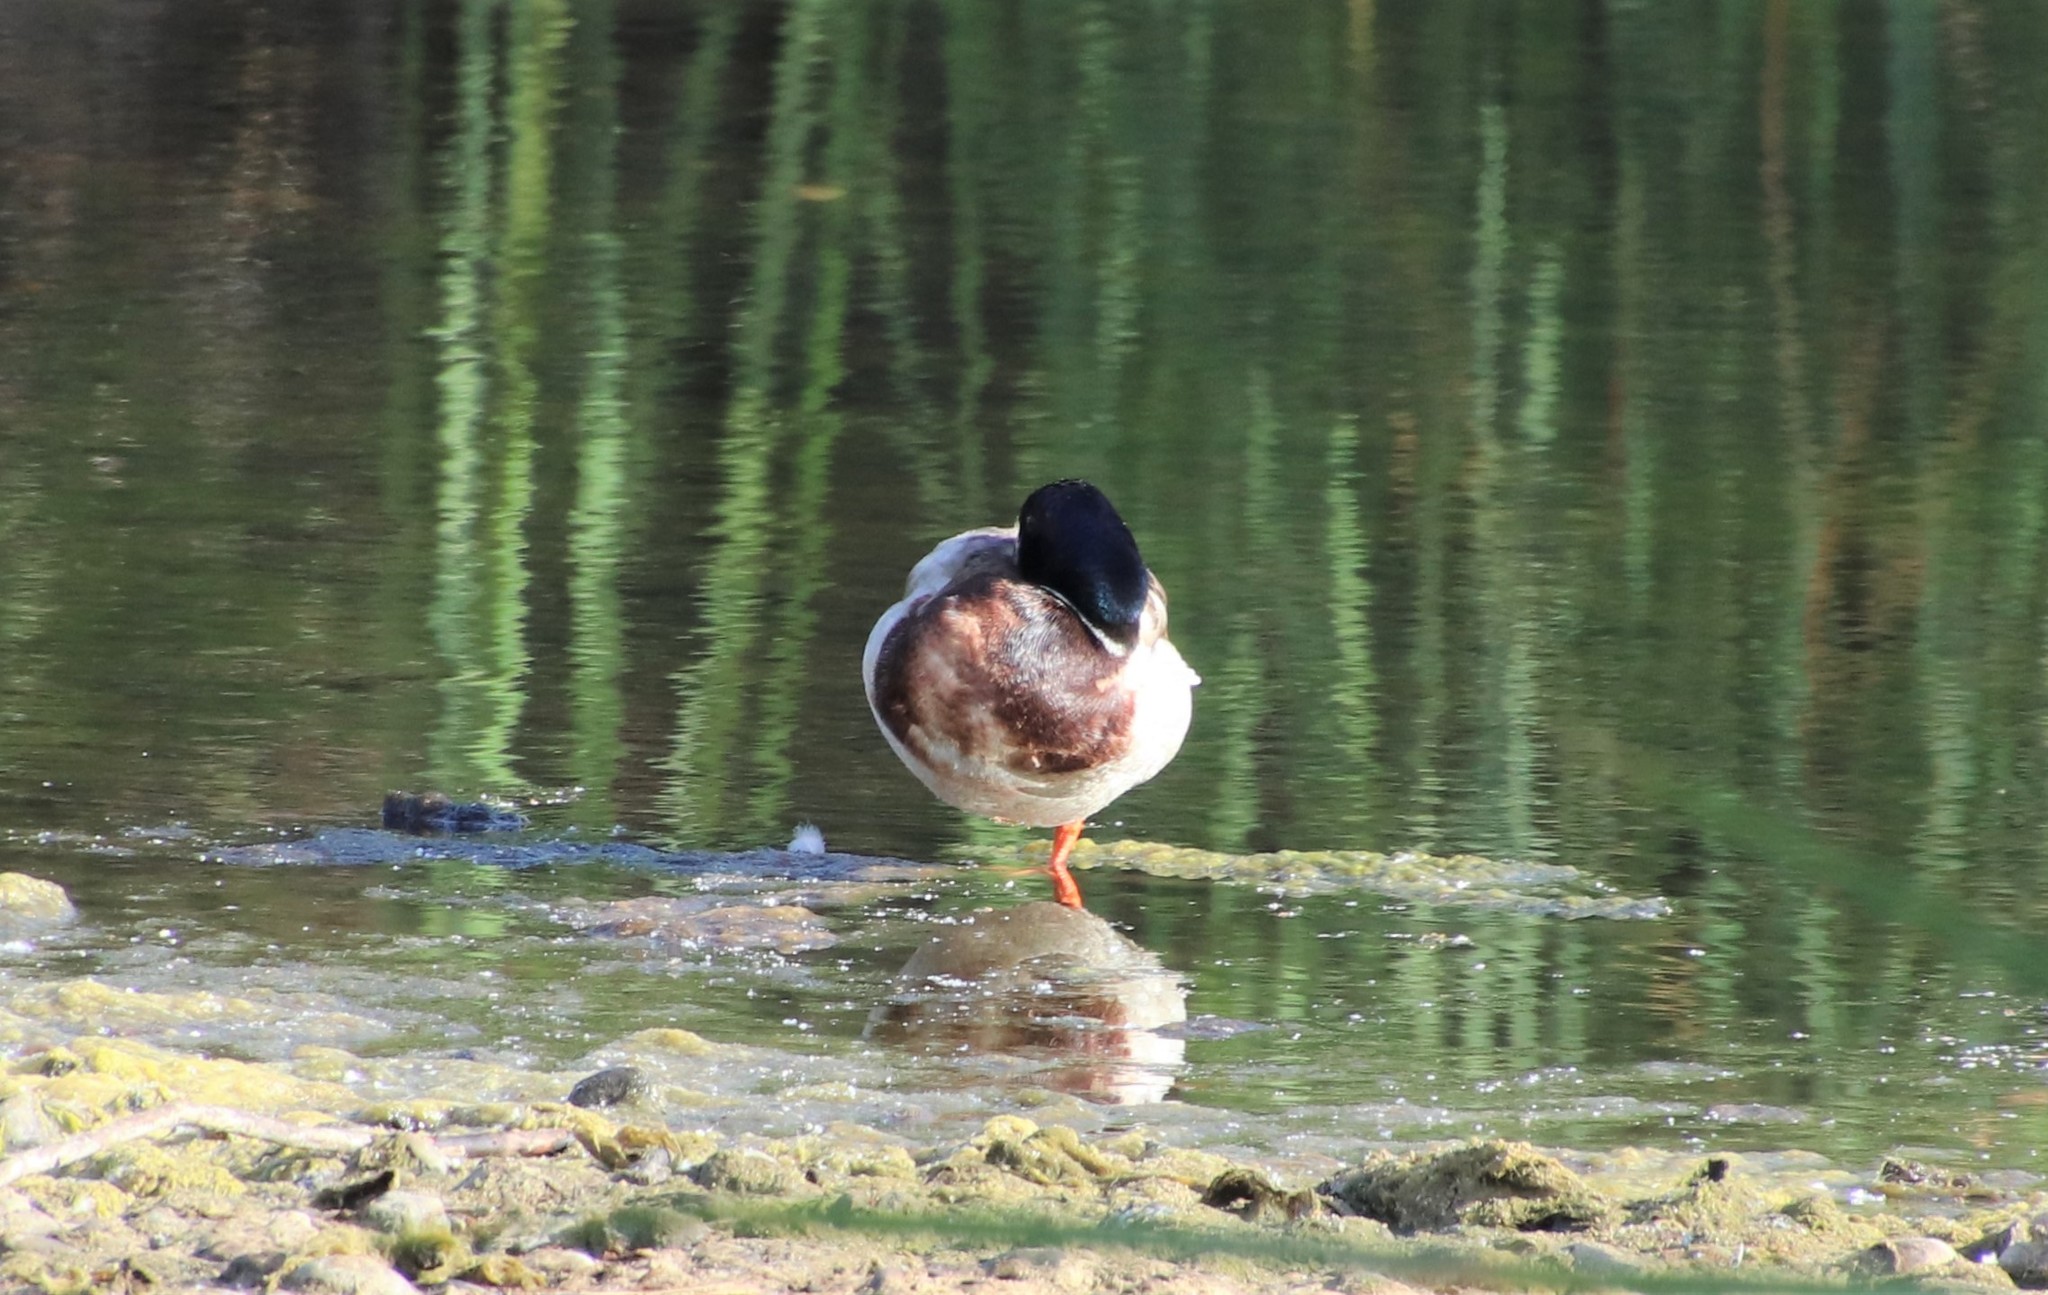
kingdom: Animalia
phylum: Chordata
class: Aves
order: Anseriformes
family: Anatidae
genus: Anas
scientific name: Anas platyrhynchos
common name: Mallard
